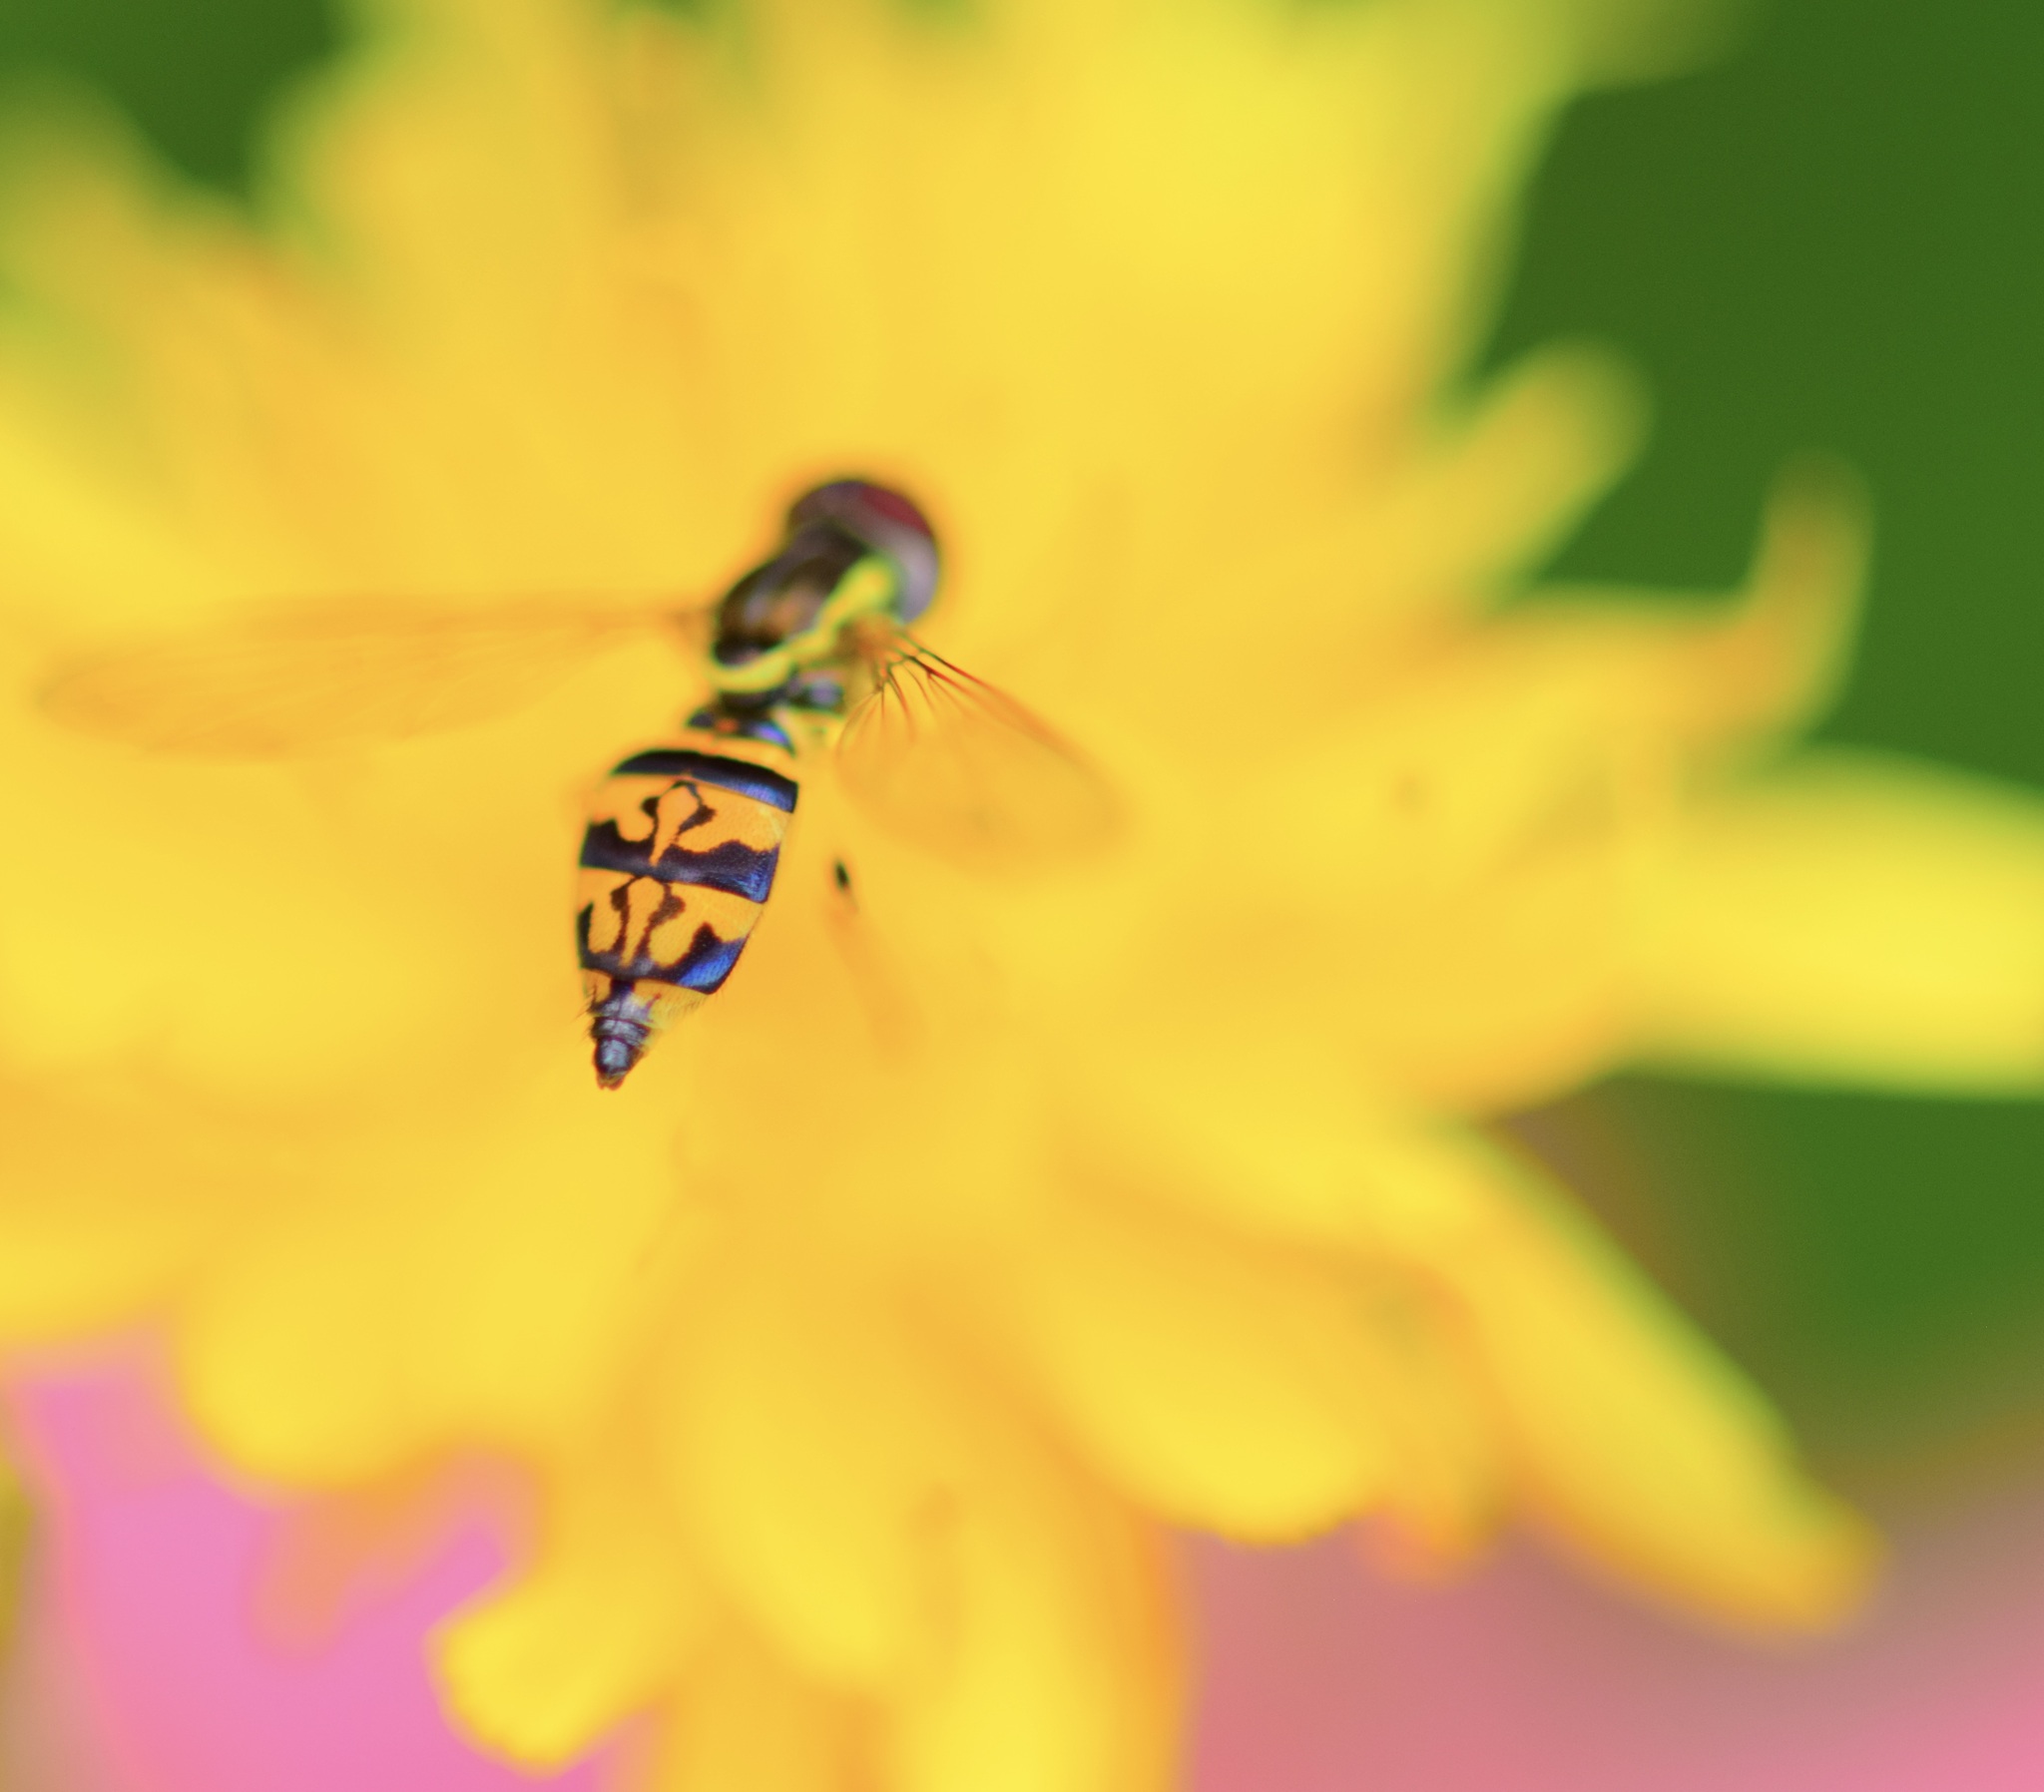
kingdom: Animalia
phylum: Arthropoda
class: Insecta
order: Diptera
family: Syrphidae
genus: Toxomerus
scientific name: Toxomerus geminatus
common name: Eastern calligrapher
